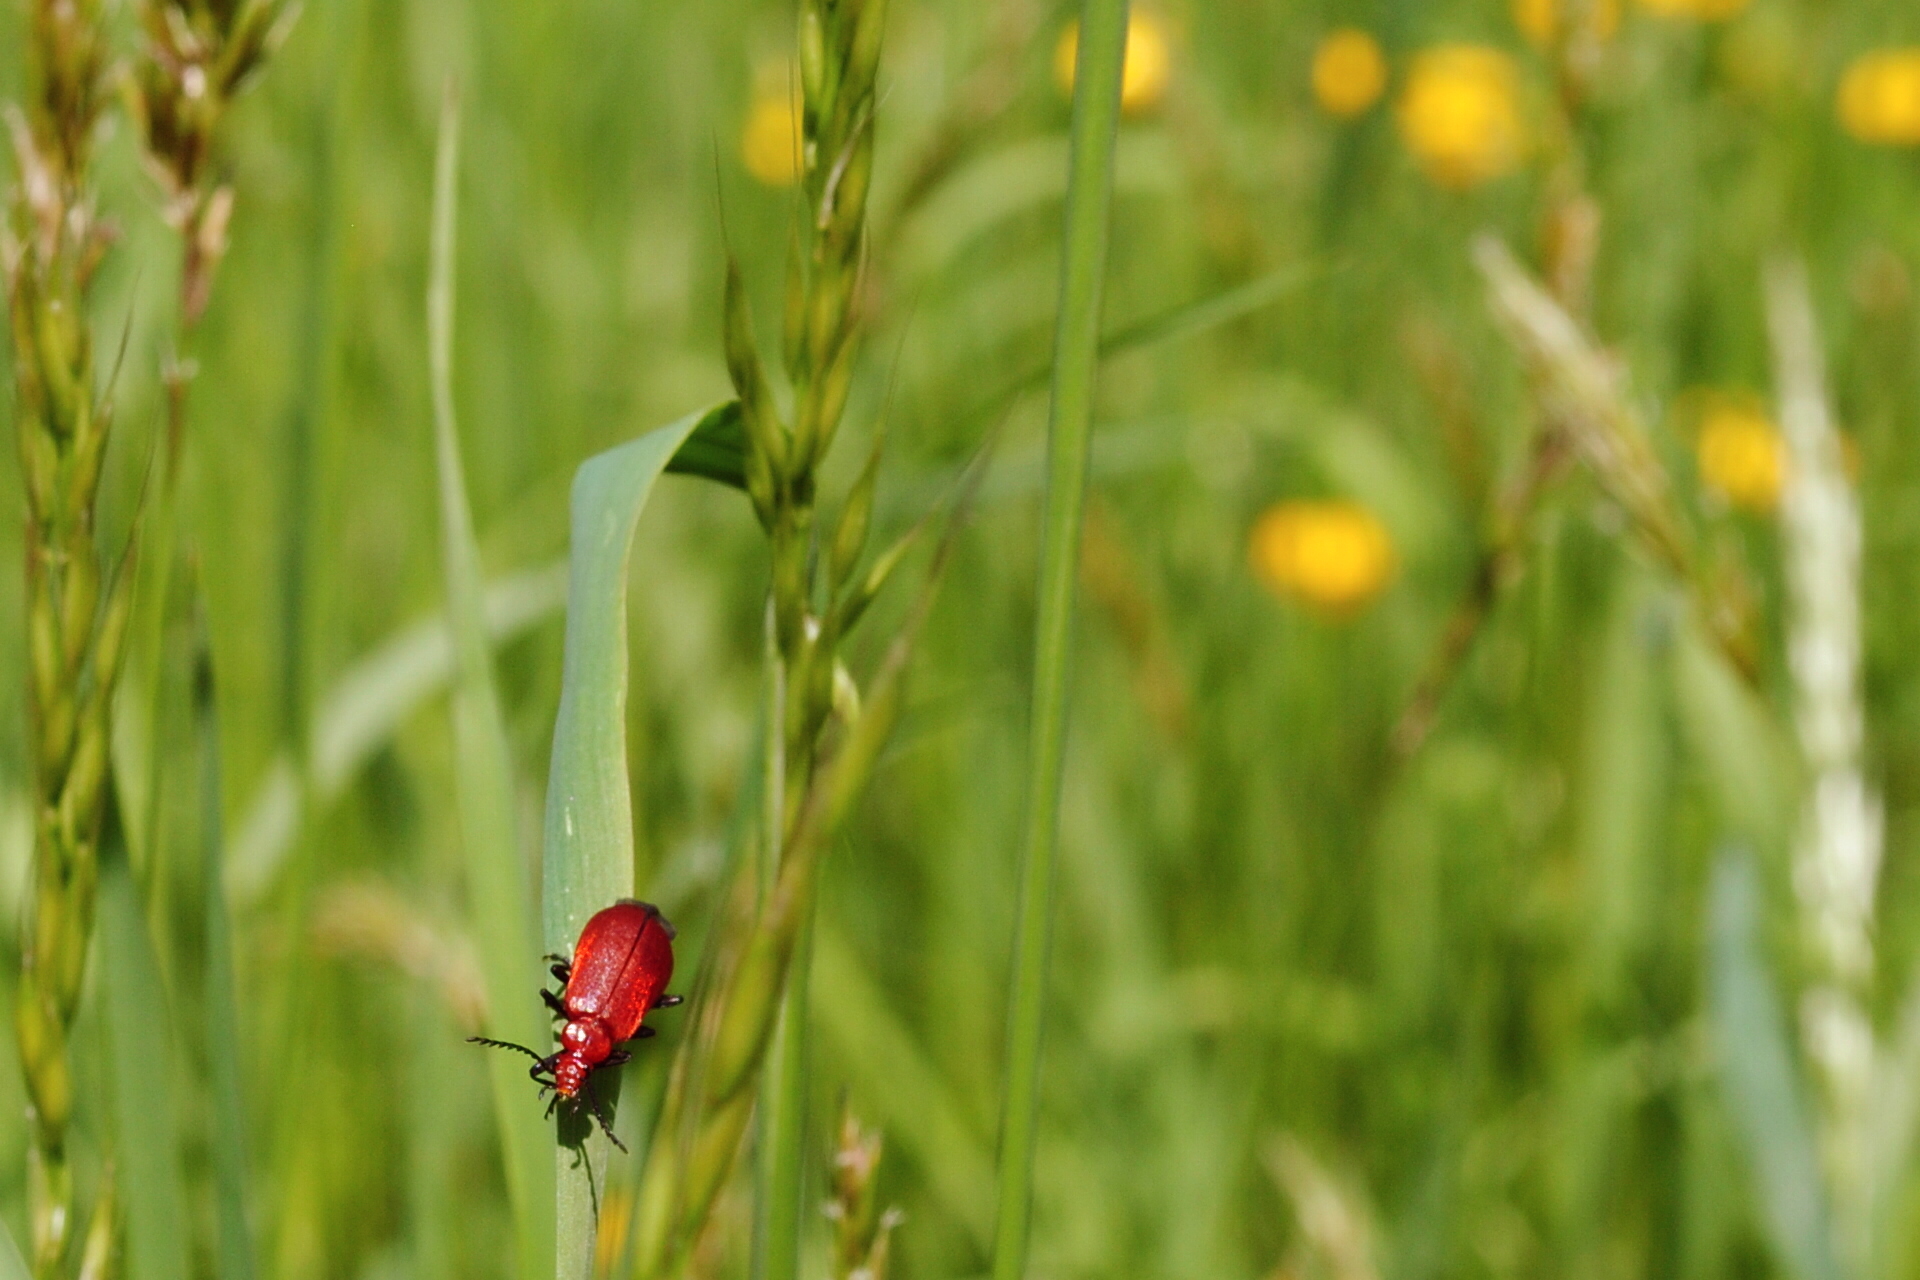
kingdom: Animalia
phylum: Arthropoda
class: Insecta
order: Coleoptera
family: Pyrochroidae
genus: Pyrochroa
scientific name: Pyrochroa serraticornis
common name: Red-headed cardinal beetle
